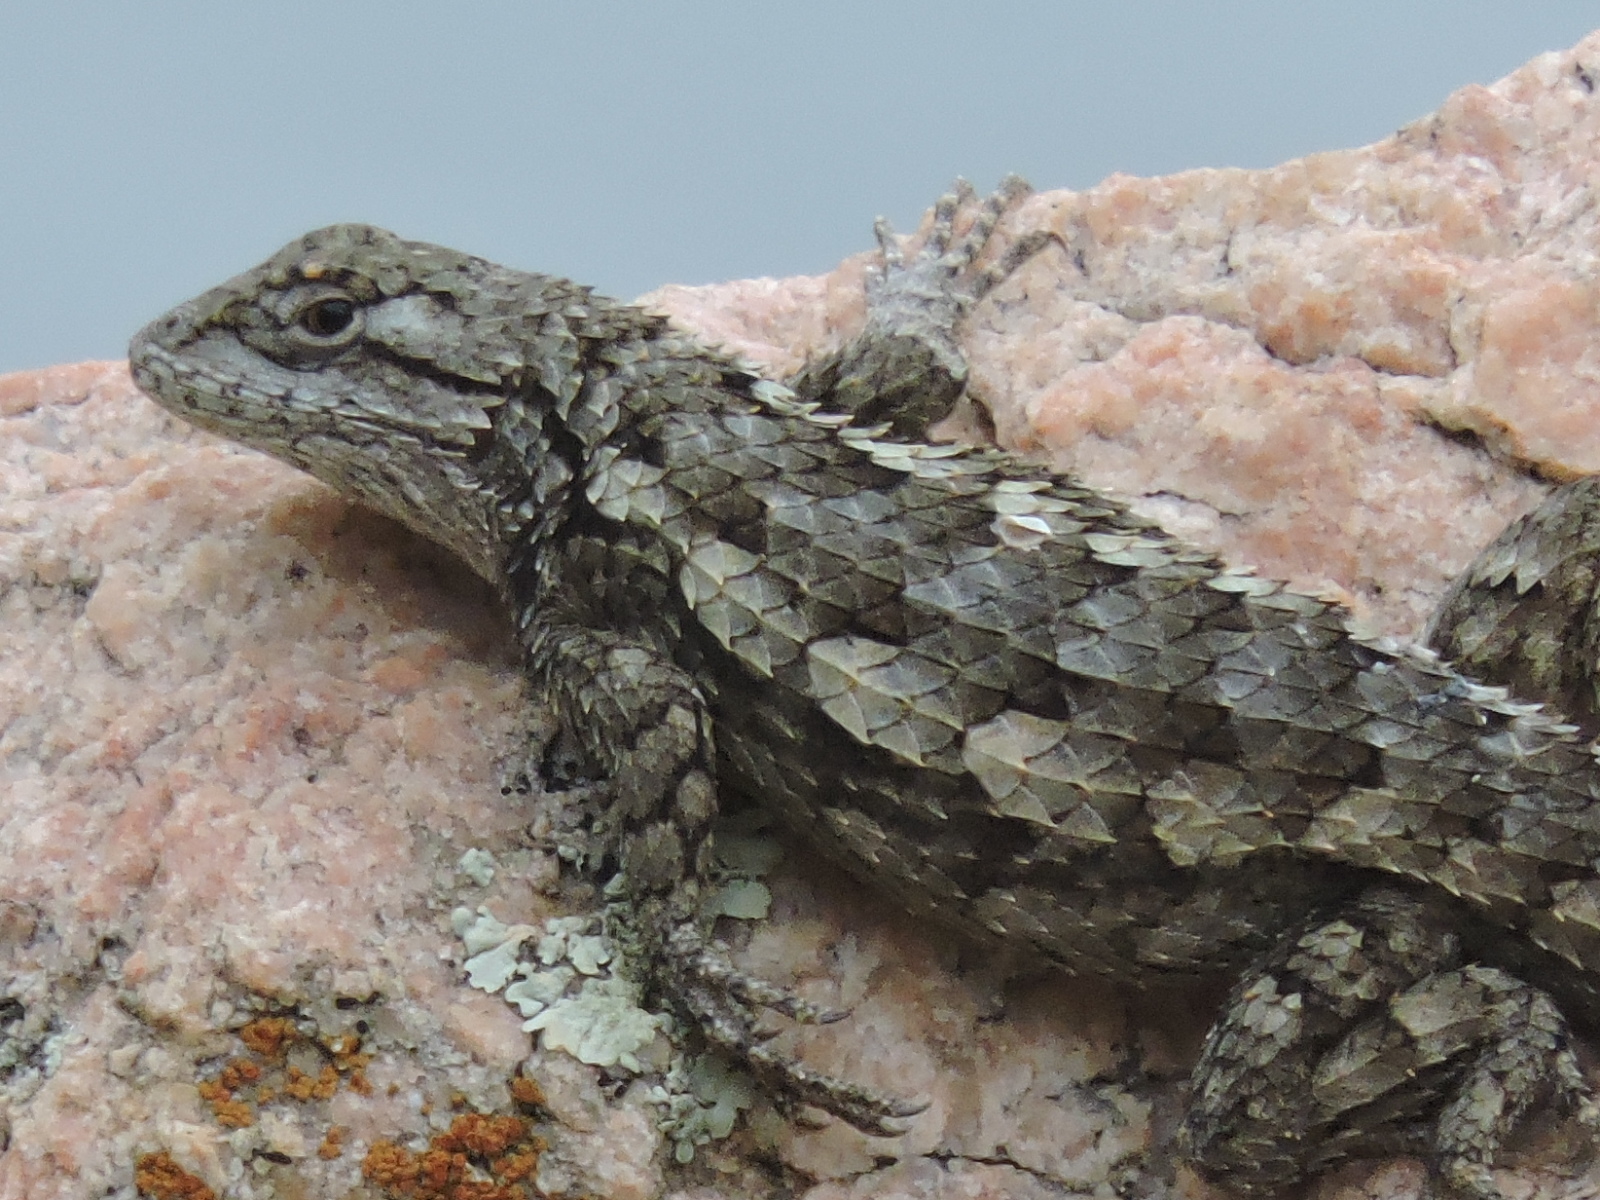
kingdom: Animalia
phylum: Chordata
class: Squamata
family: Phrynosomatidae
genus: Sceloporus
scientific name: Sceloporus olivaceus
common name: Texas spiny lizard
